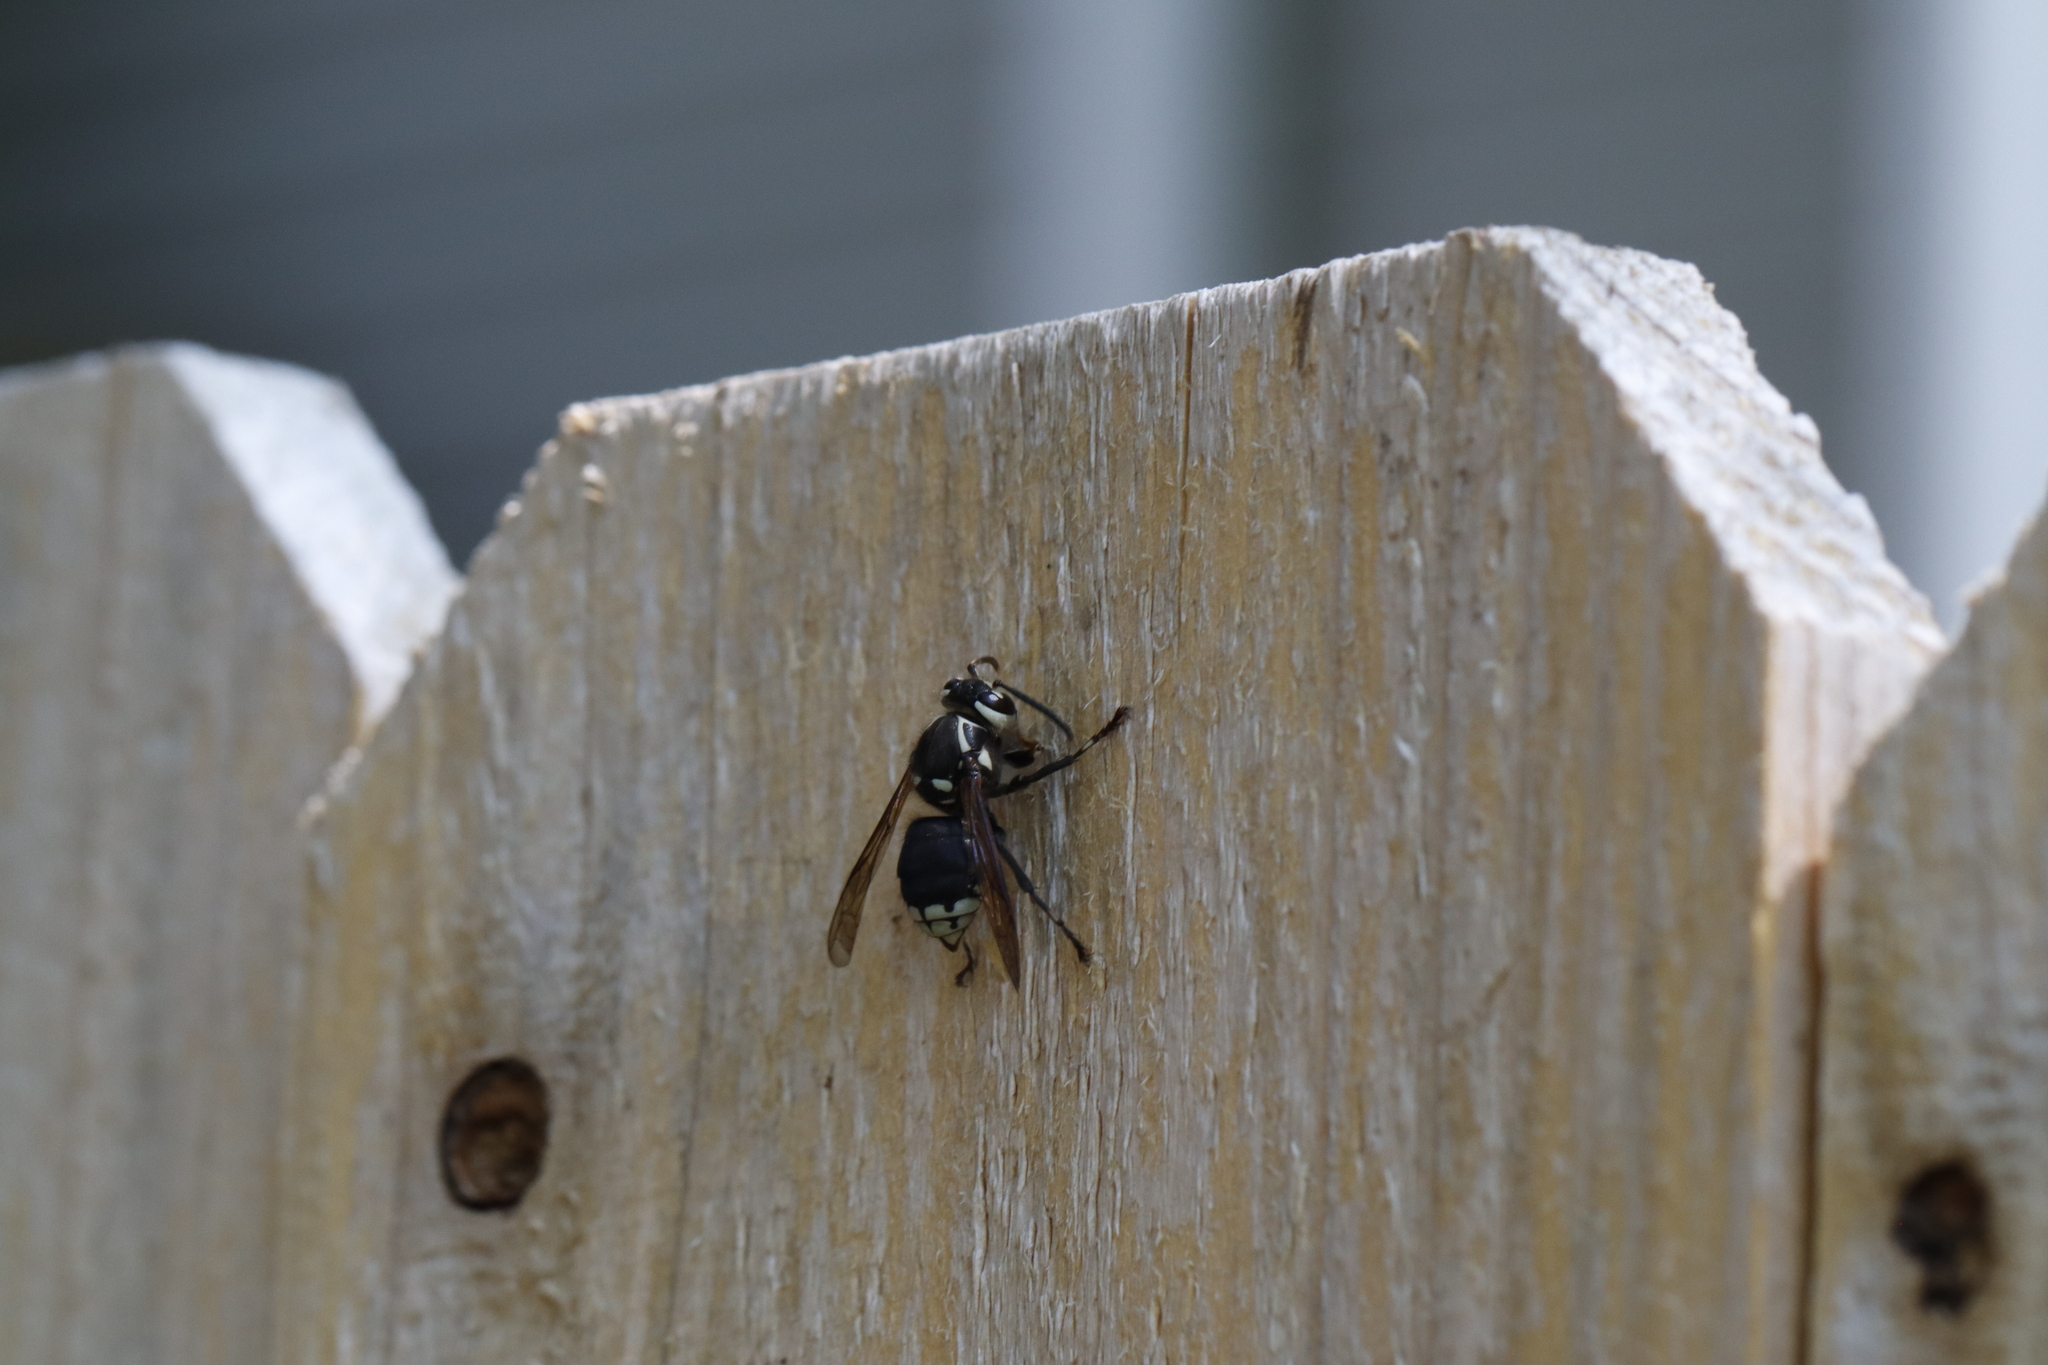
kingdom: Animalia
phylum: Arthropoda
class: Insecta
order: Hymenoptera
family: Vespidae
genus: Dolichovespula
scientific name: Dolichovespula maculata
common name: Bald-faced hornet
